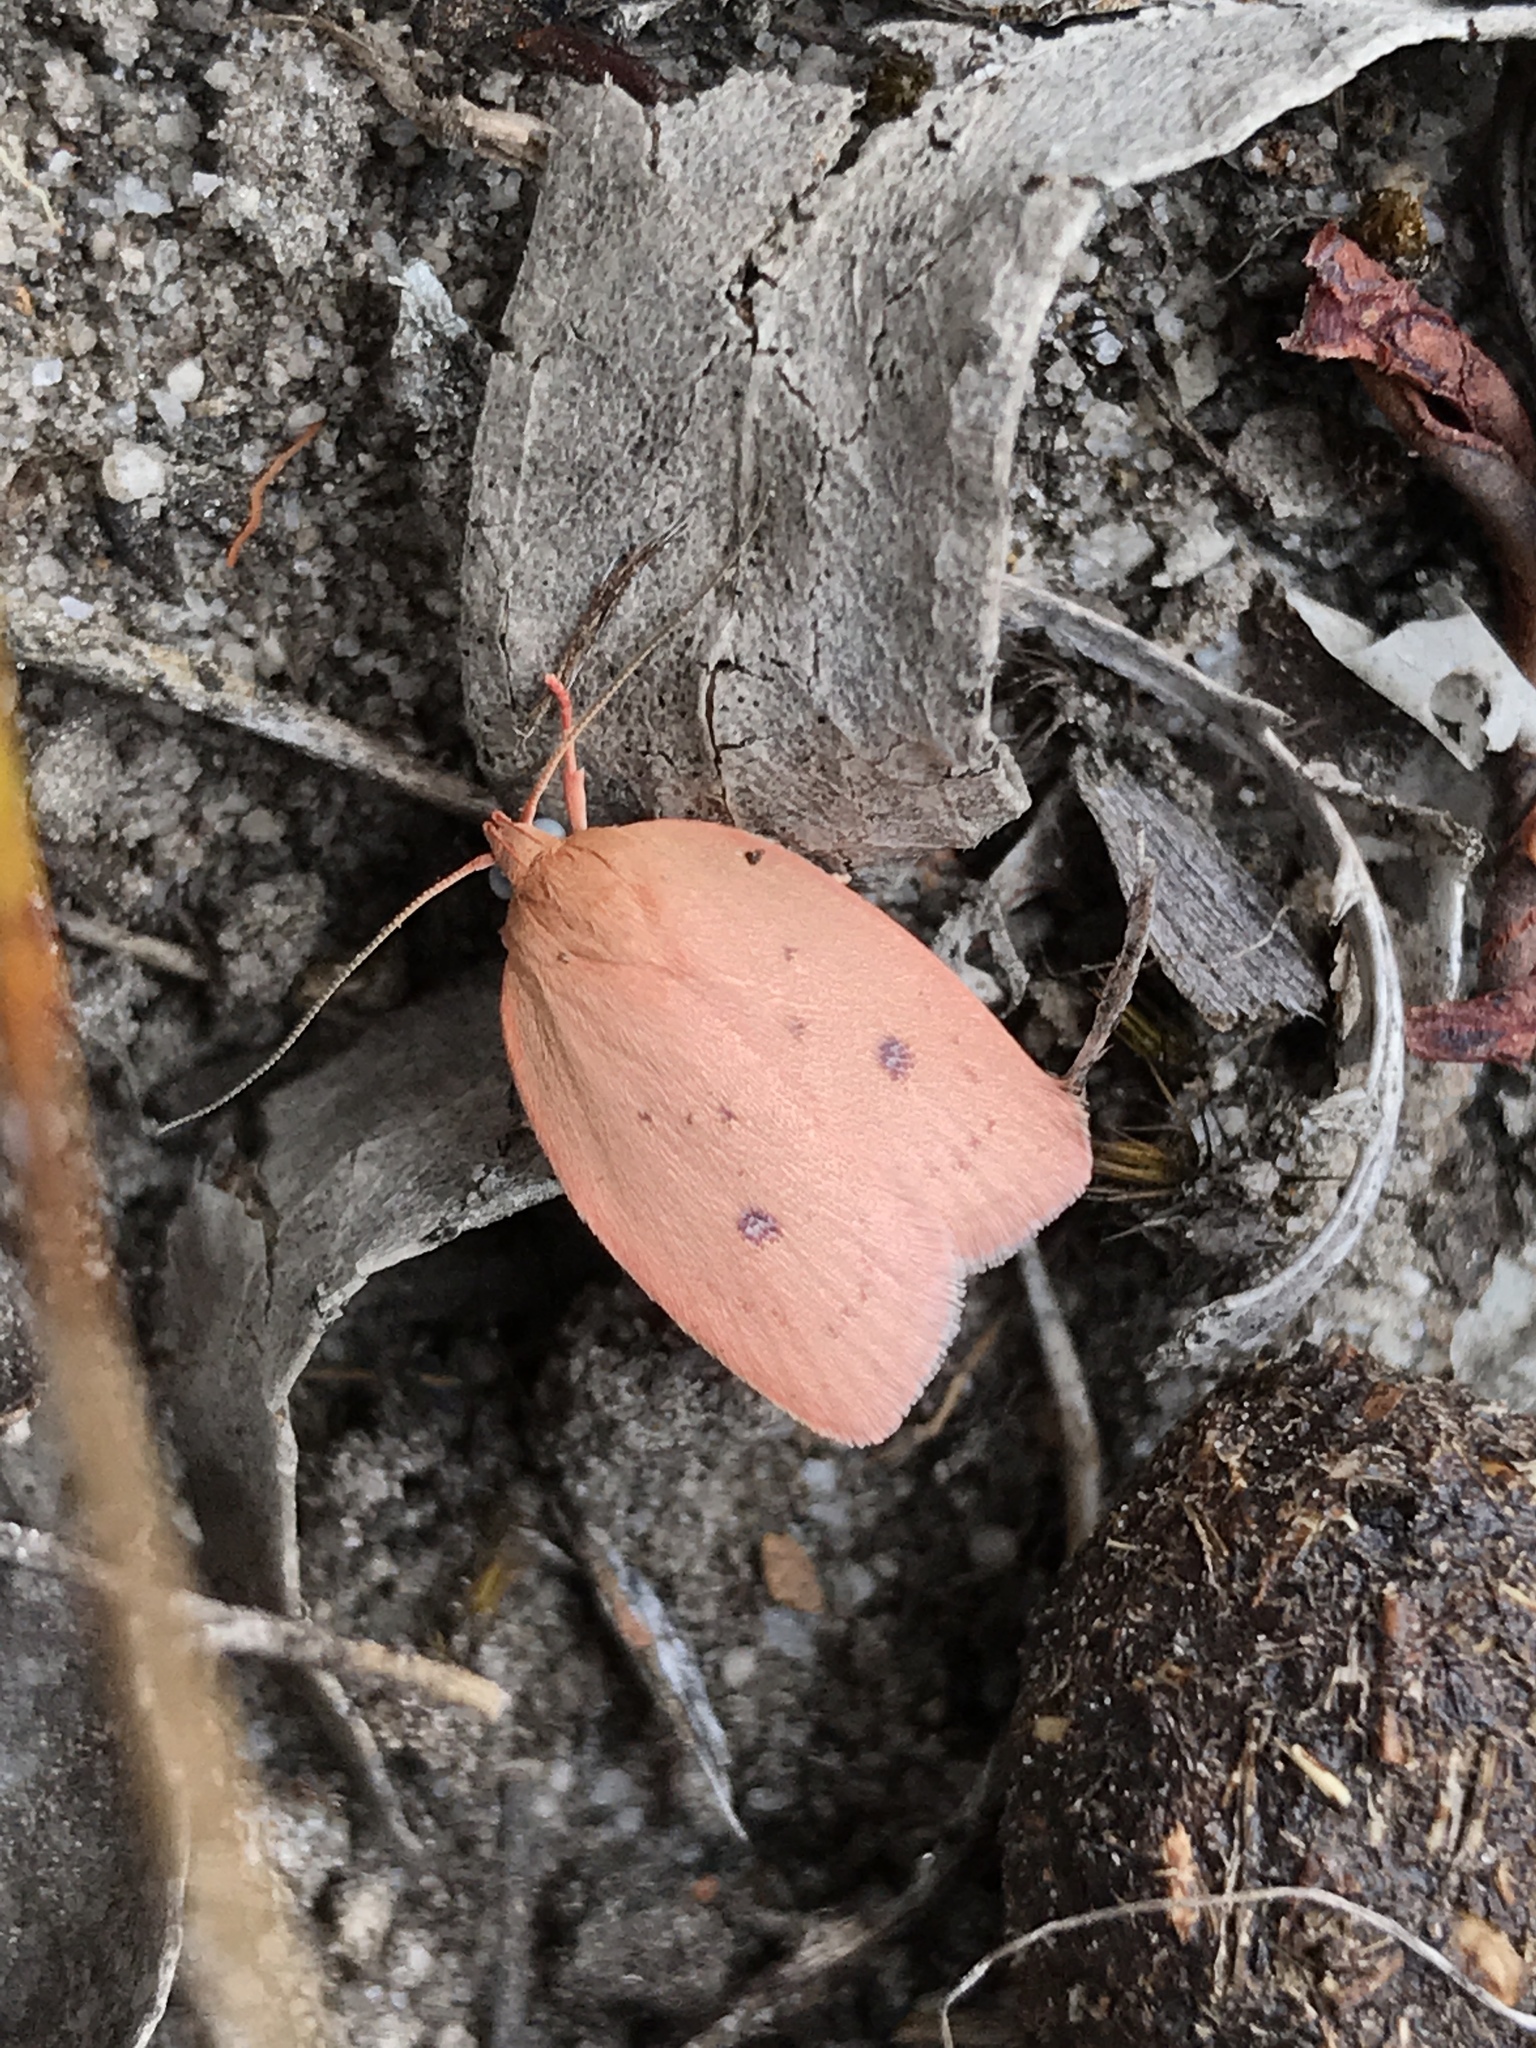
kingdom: Animalia
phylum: Arthropoda
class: Insecta
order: Lepidoptera
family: Oecophoridae
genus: Garrha
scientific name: Garrha pudica
